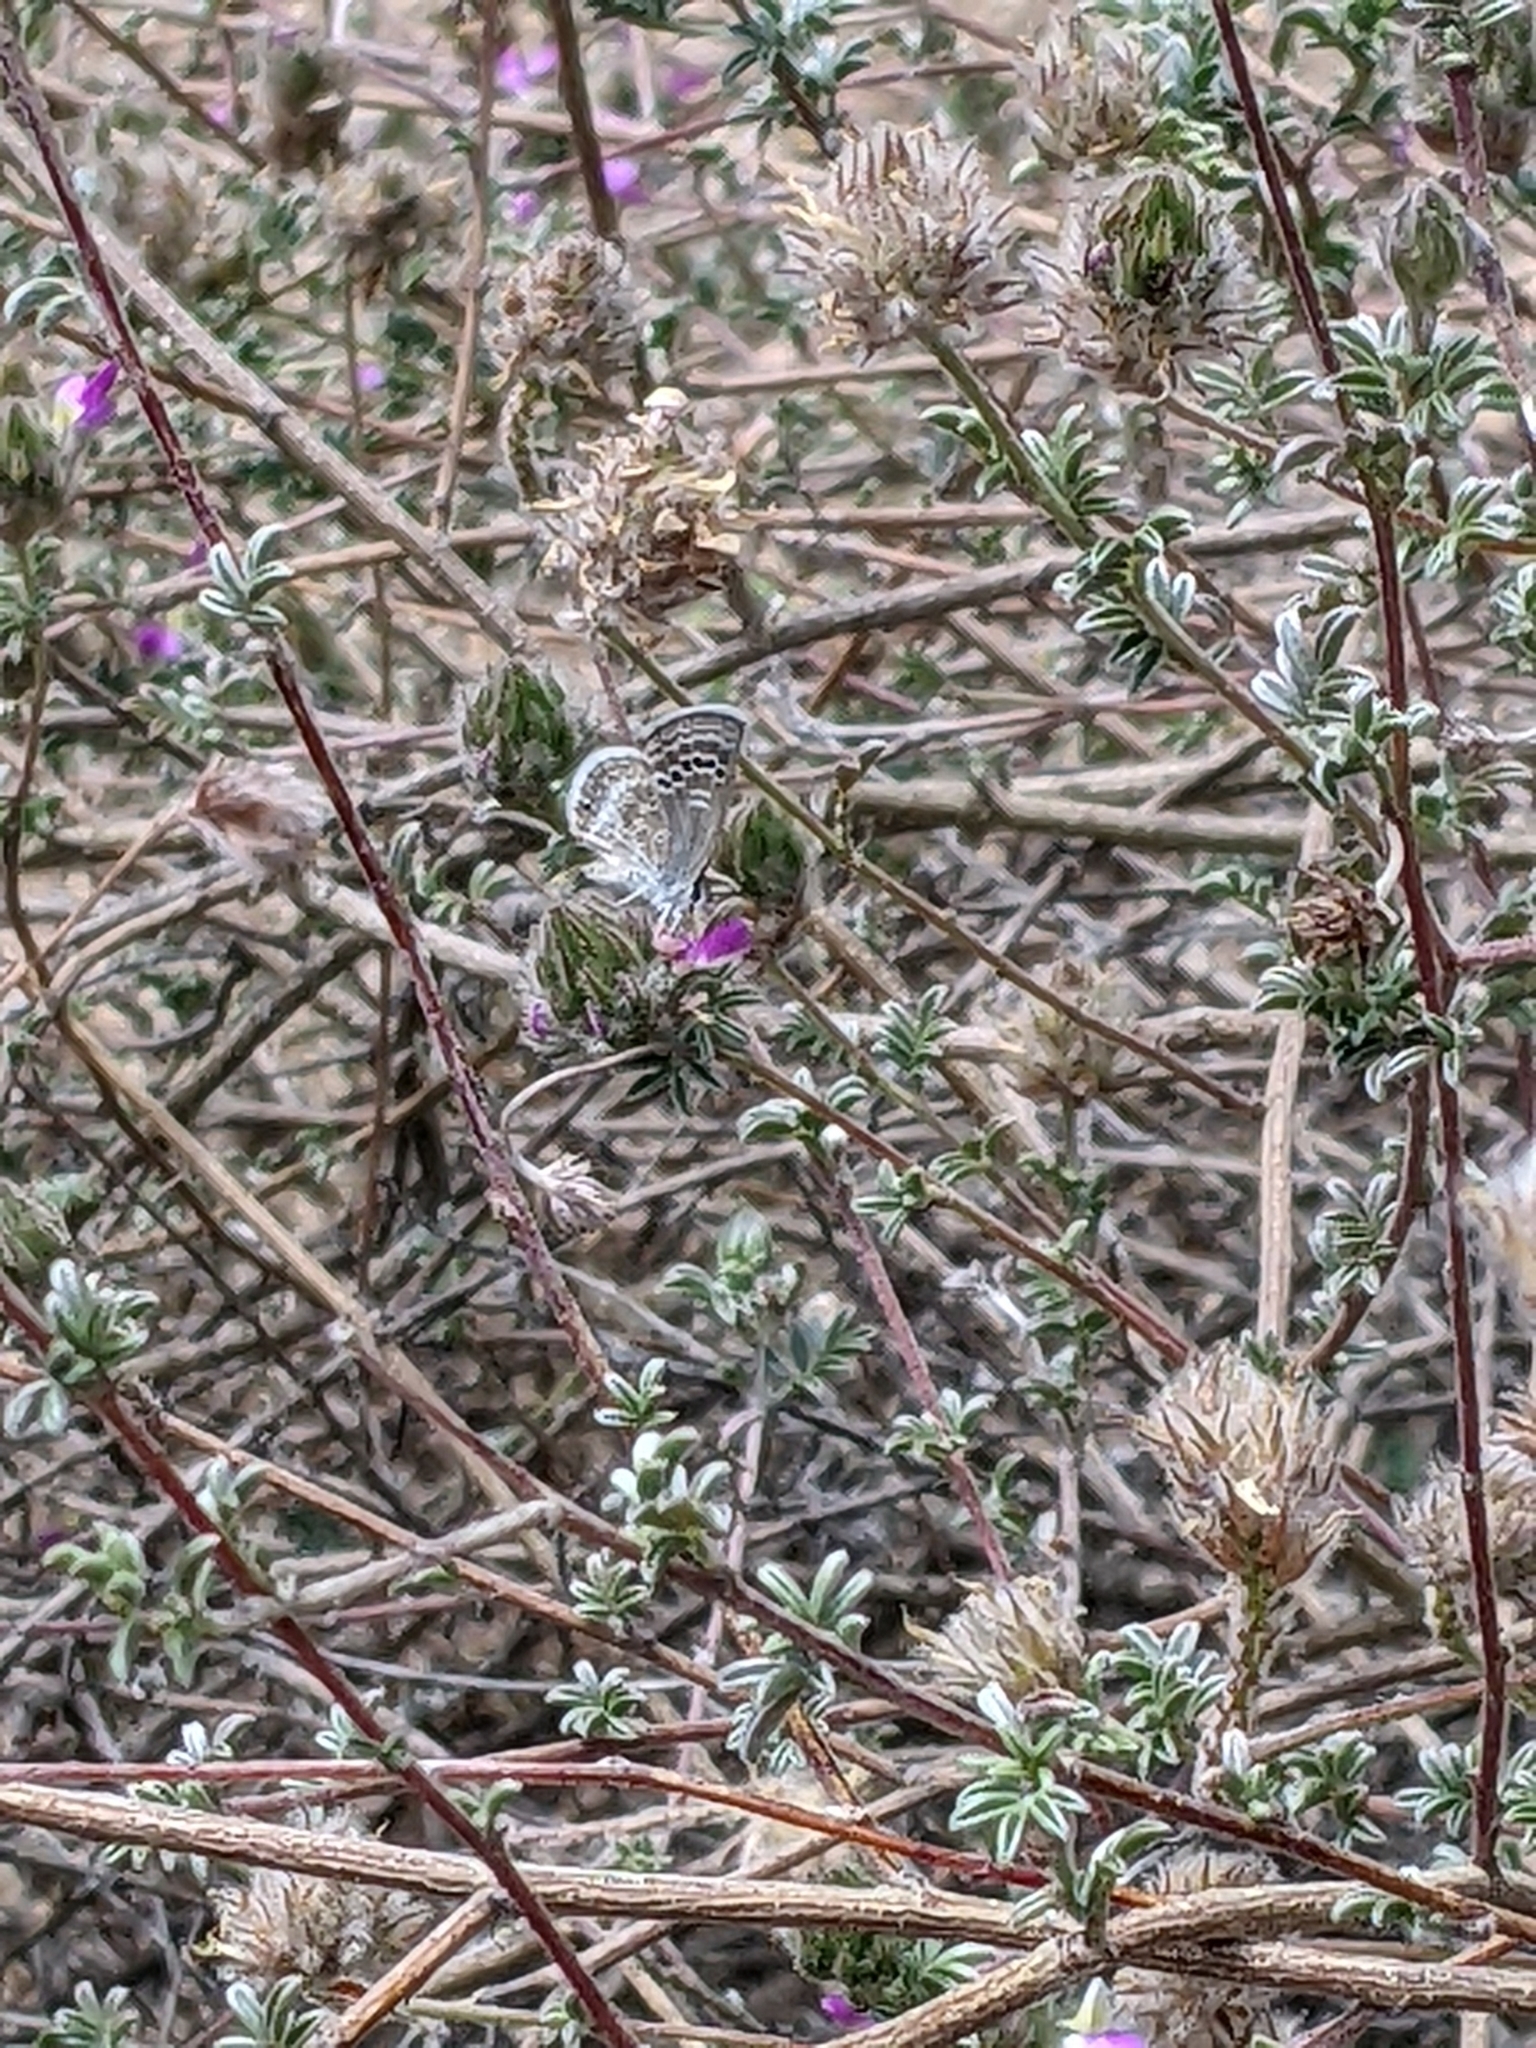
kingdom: Animalia
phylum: Arthropoda
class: Insecta
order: Lepidoptera
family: Lycaenidae
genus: Echinargus
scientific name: Echinargus isola
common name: Reakirt's blue
